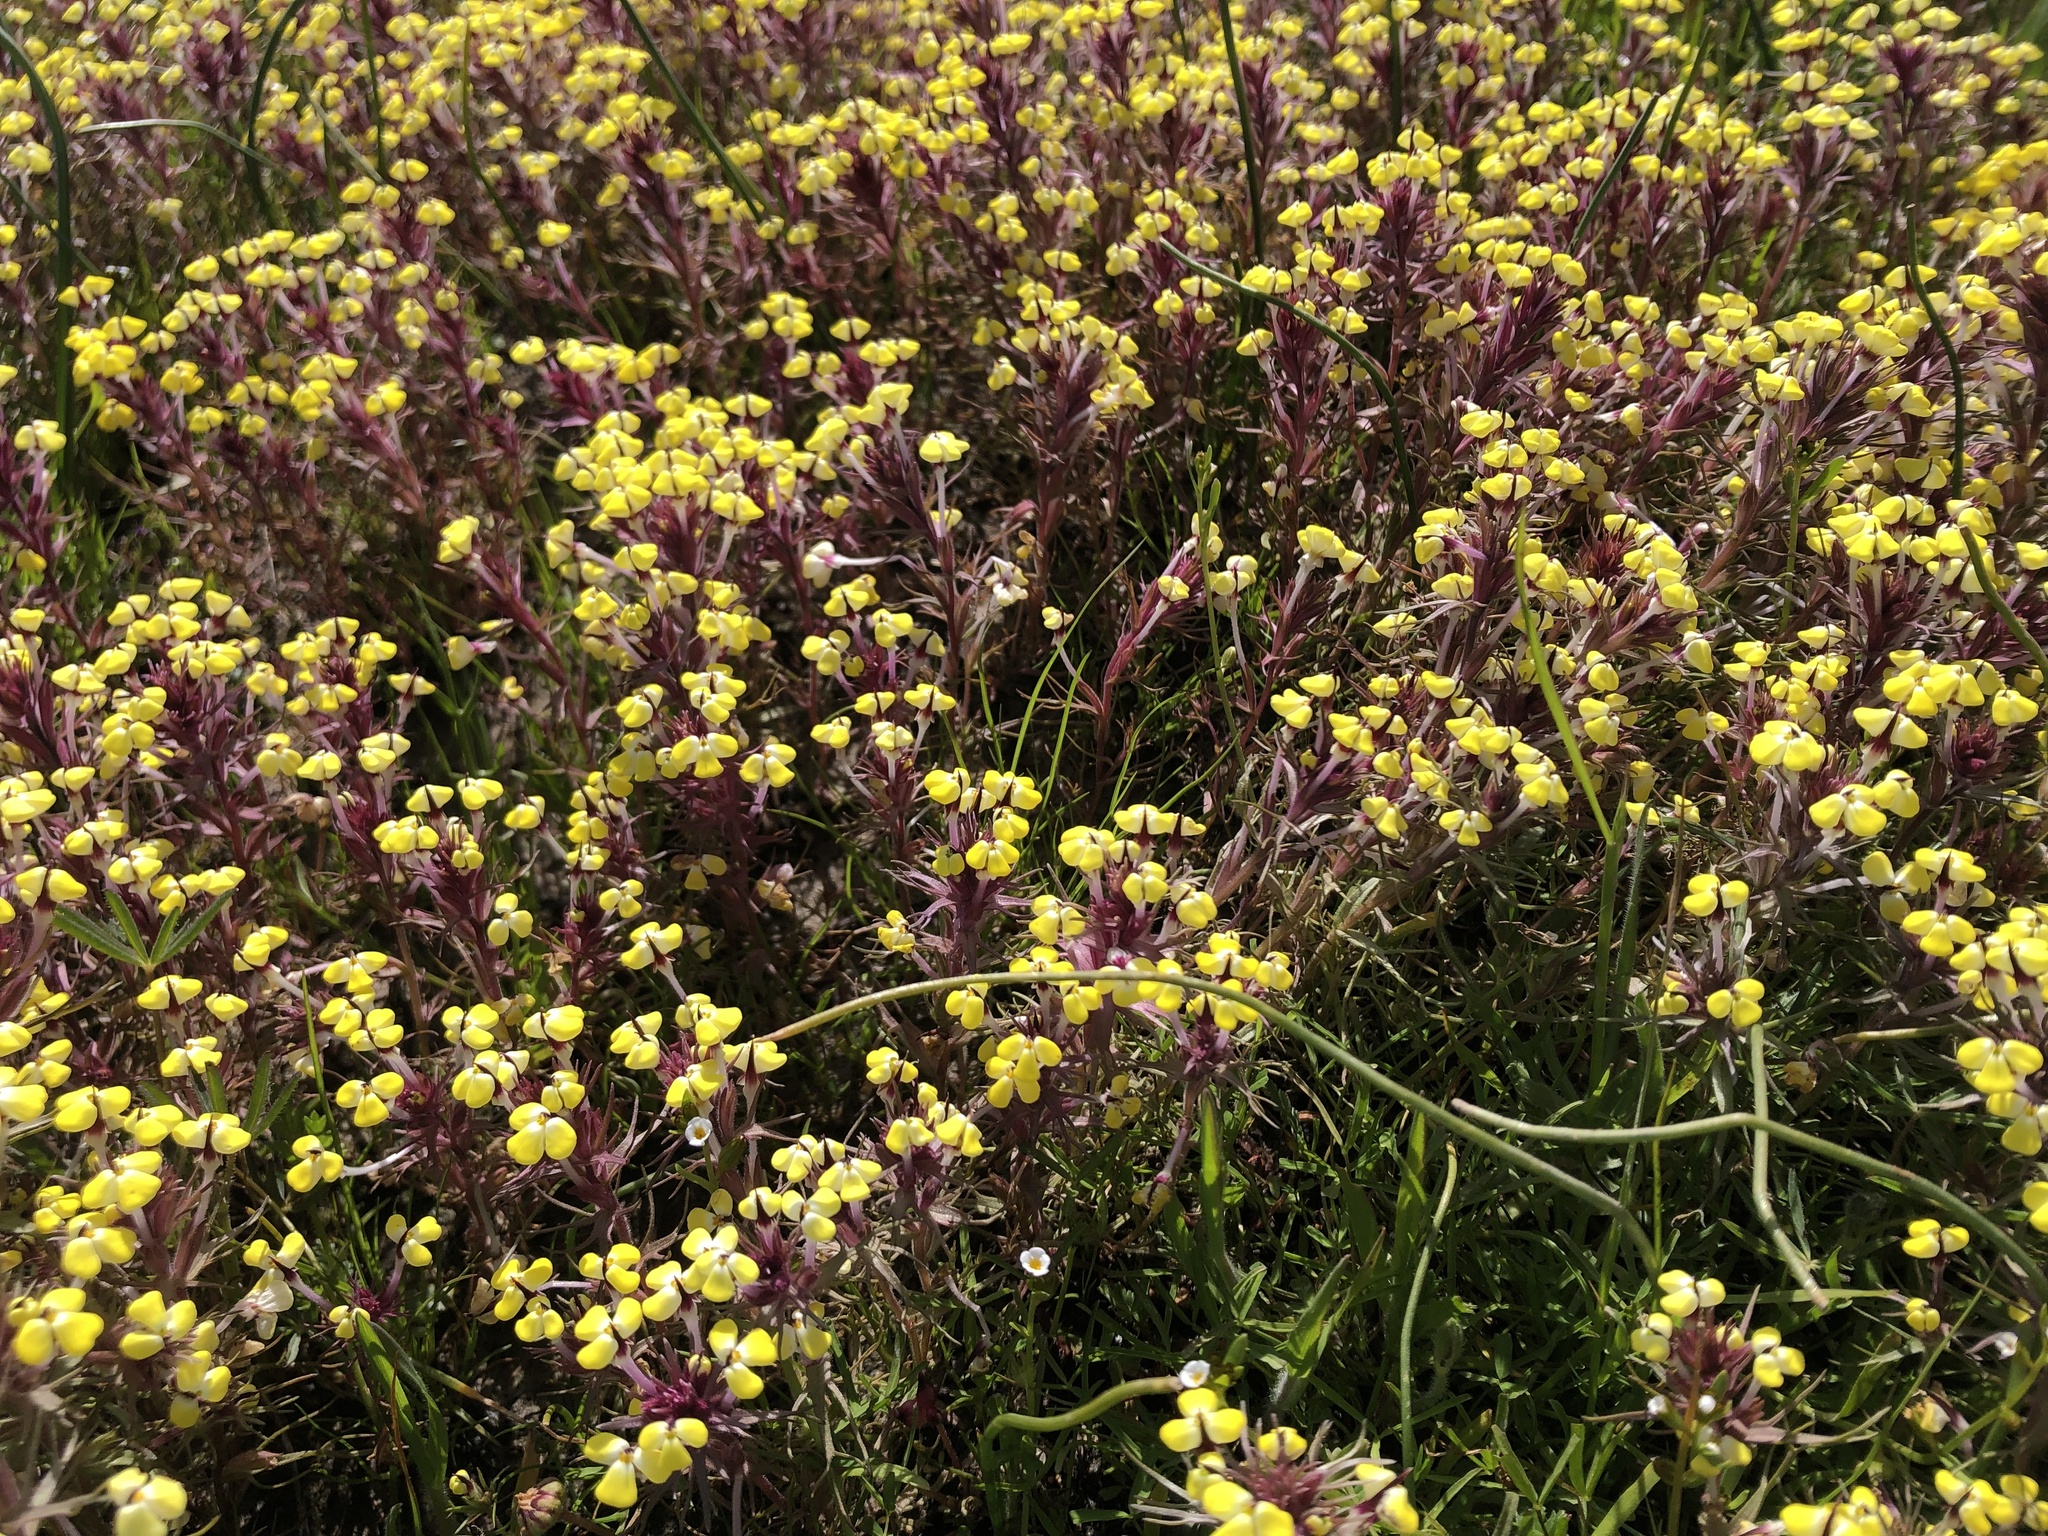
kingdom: Plantae
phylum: Tracheophyta
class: Magnoliopsida
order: Lamiales
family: Orobanchaceae
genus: Triphysaria
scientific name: Triphysaria eriantha
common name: Johnny-tuck
